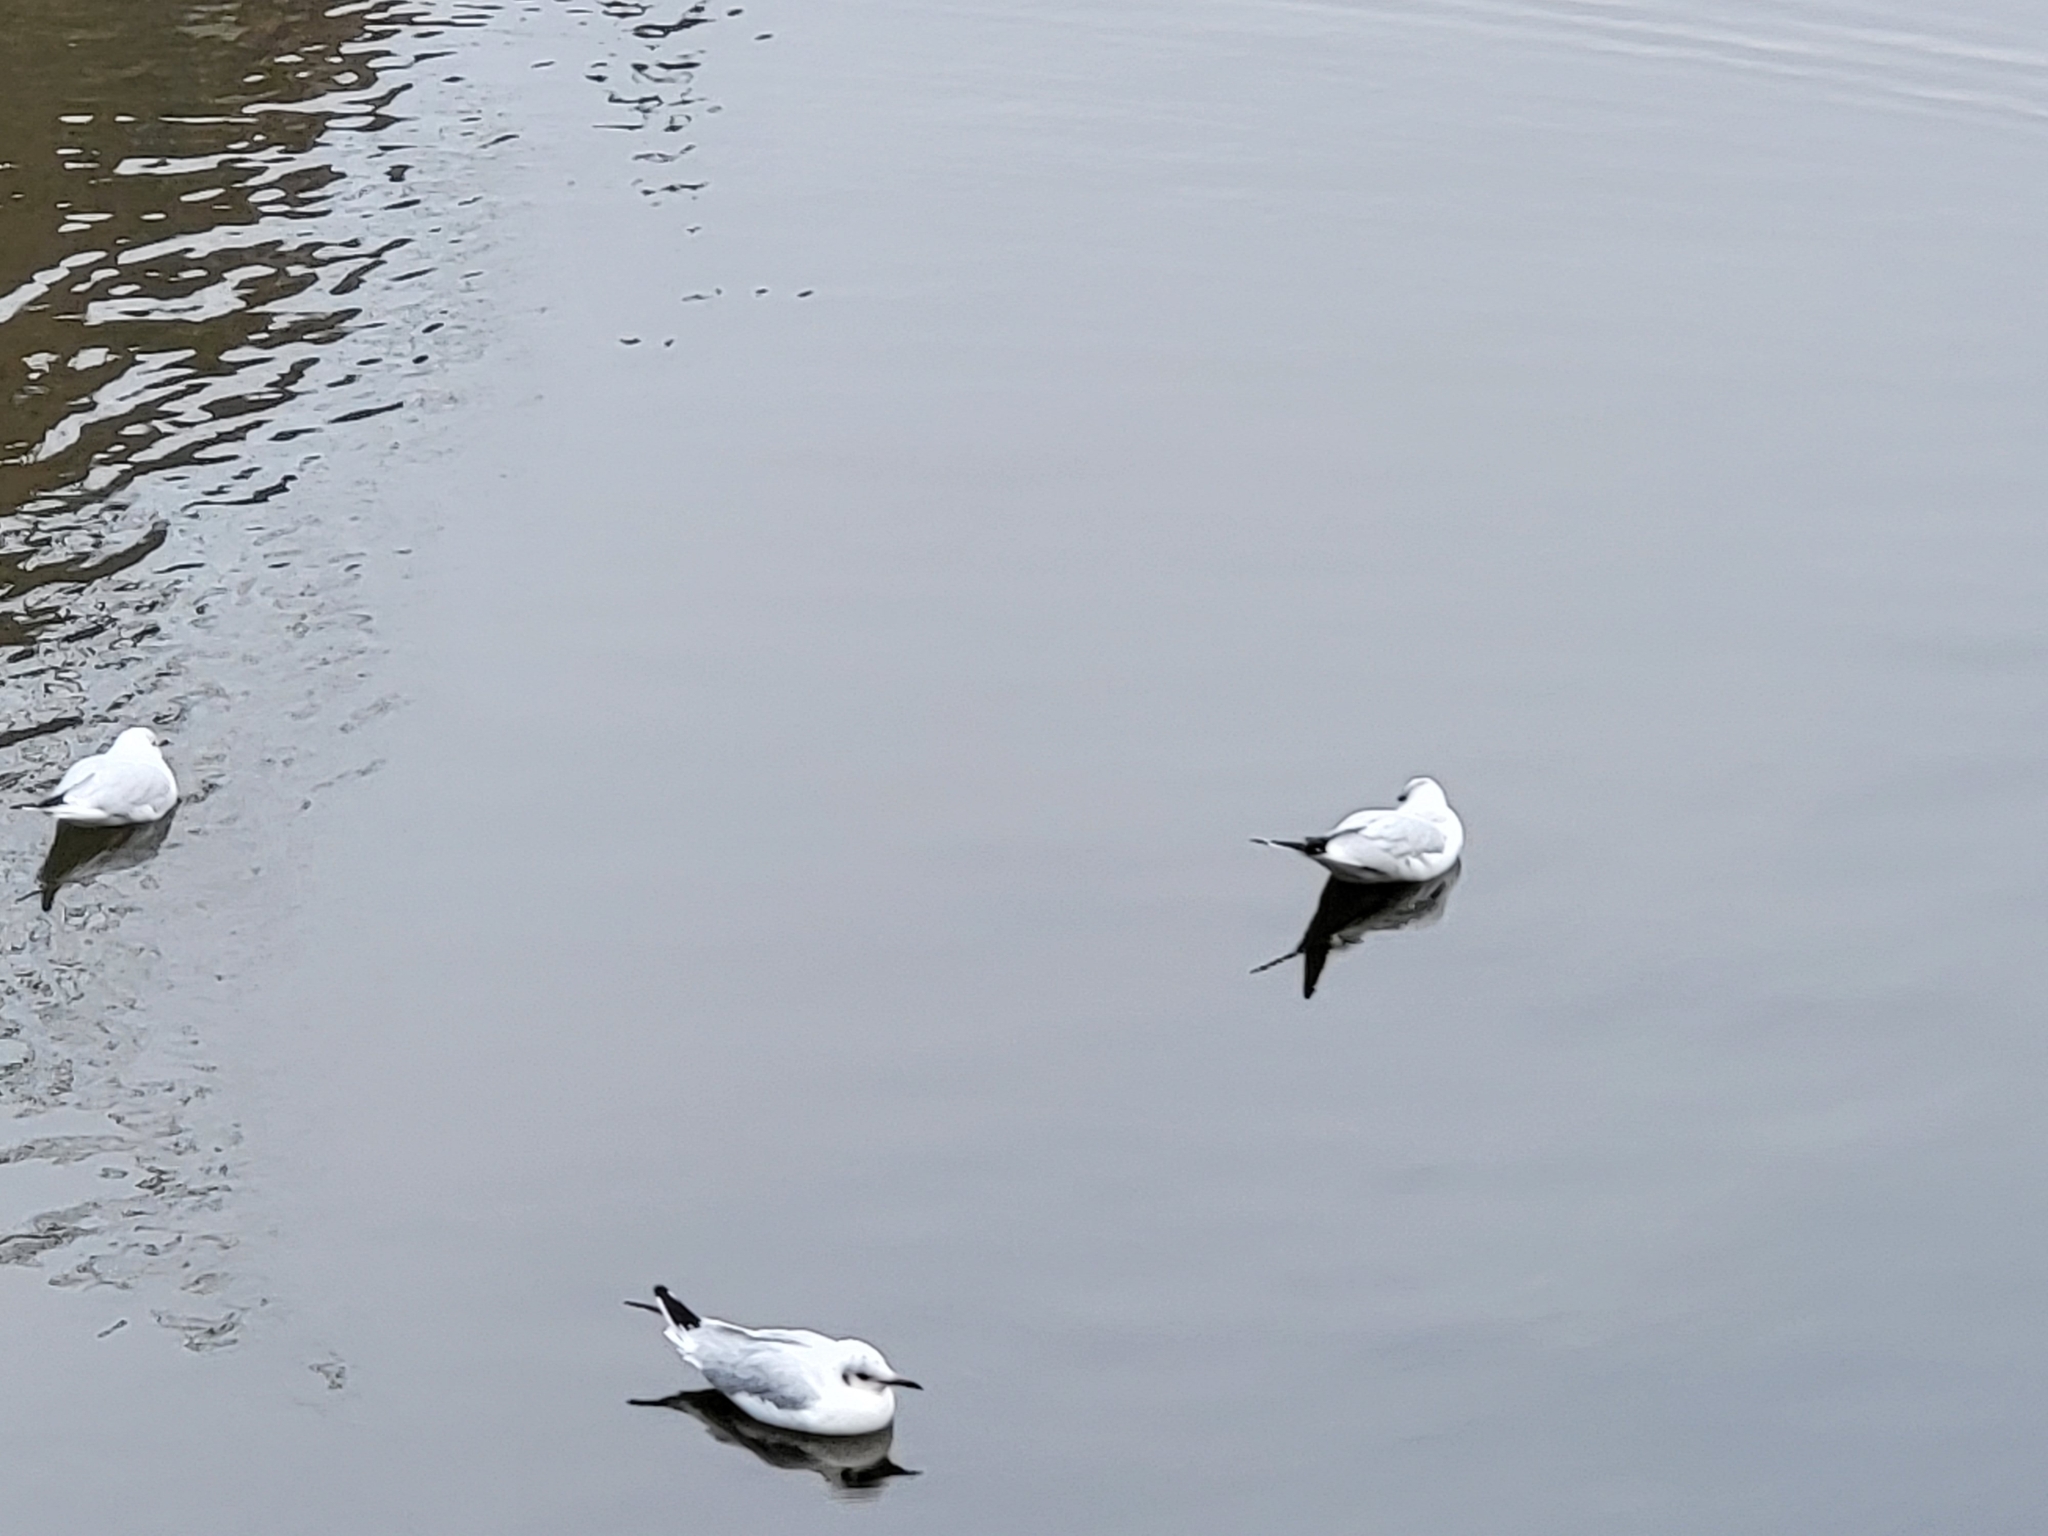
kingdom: Animalia
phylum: Chordata
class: Aves
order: Charadriiformes
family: Laridae
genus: Chroicocephalus
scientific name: Chroicocephalus ridibundus
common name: Black-headed gull
